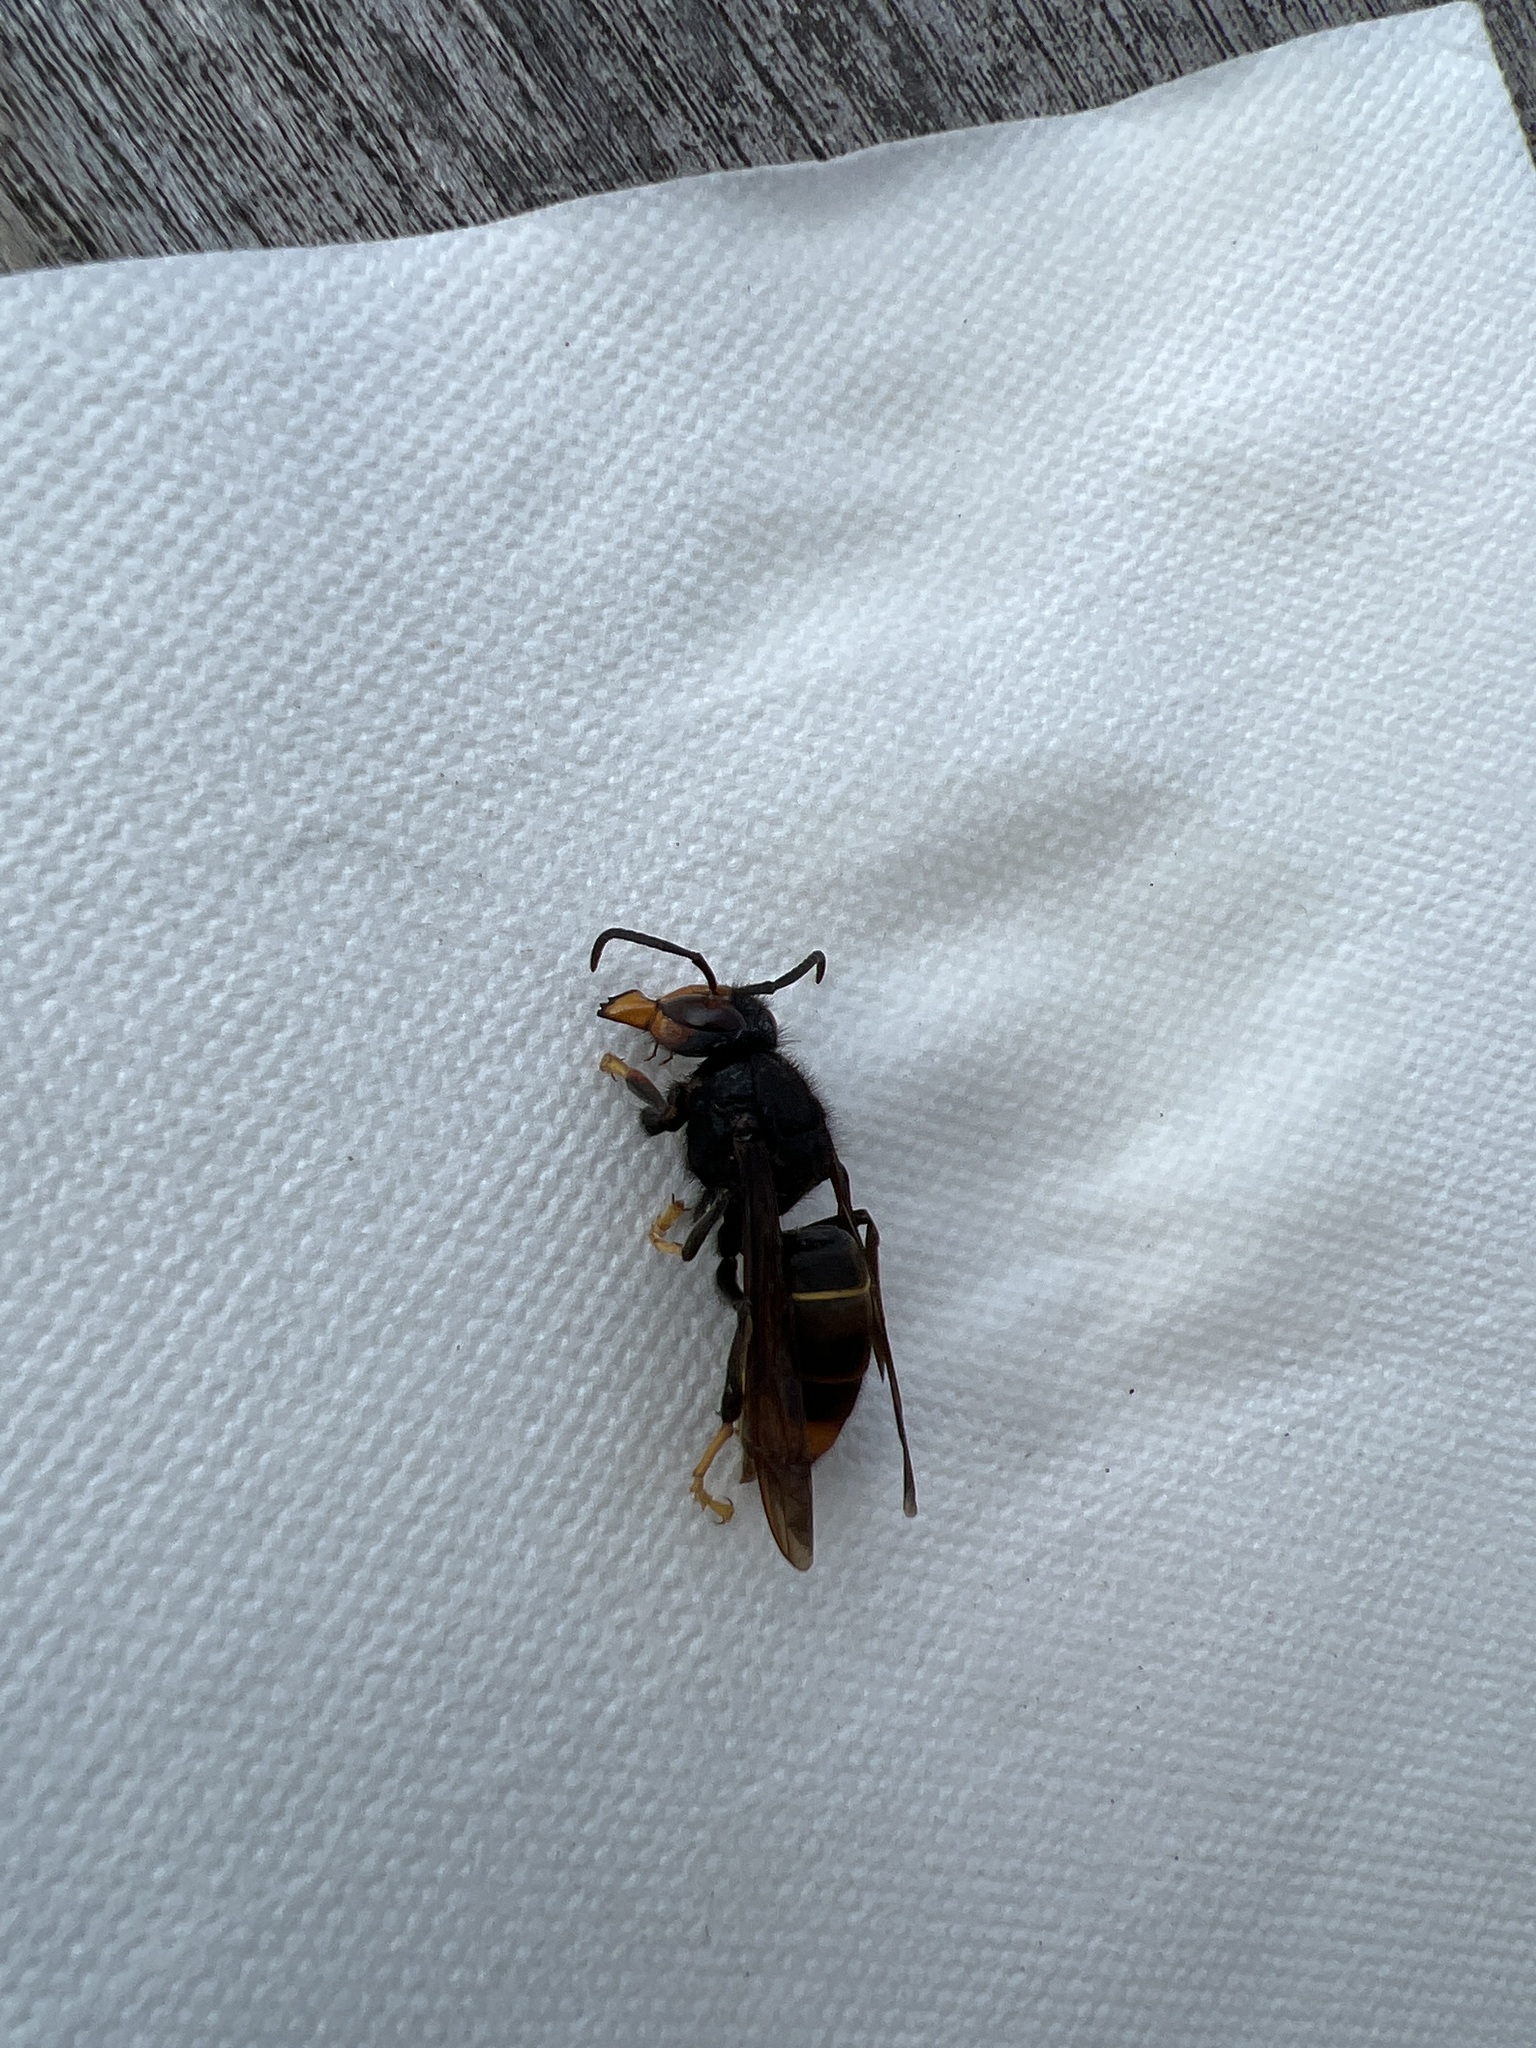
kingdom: Animalia
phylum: Arthropoda
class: Insecta
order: Hymenoptera
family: Vespidae
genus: Vespa
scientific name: Vespa velutina
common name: Asian hornet
